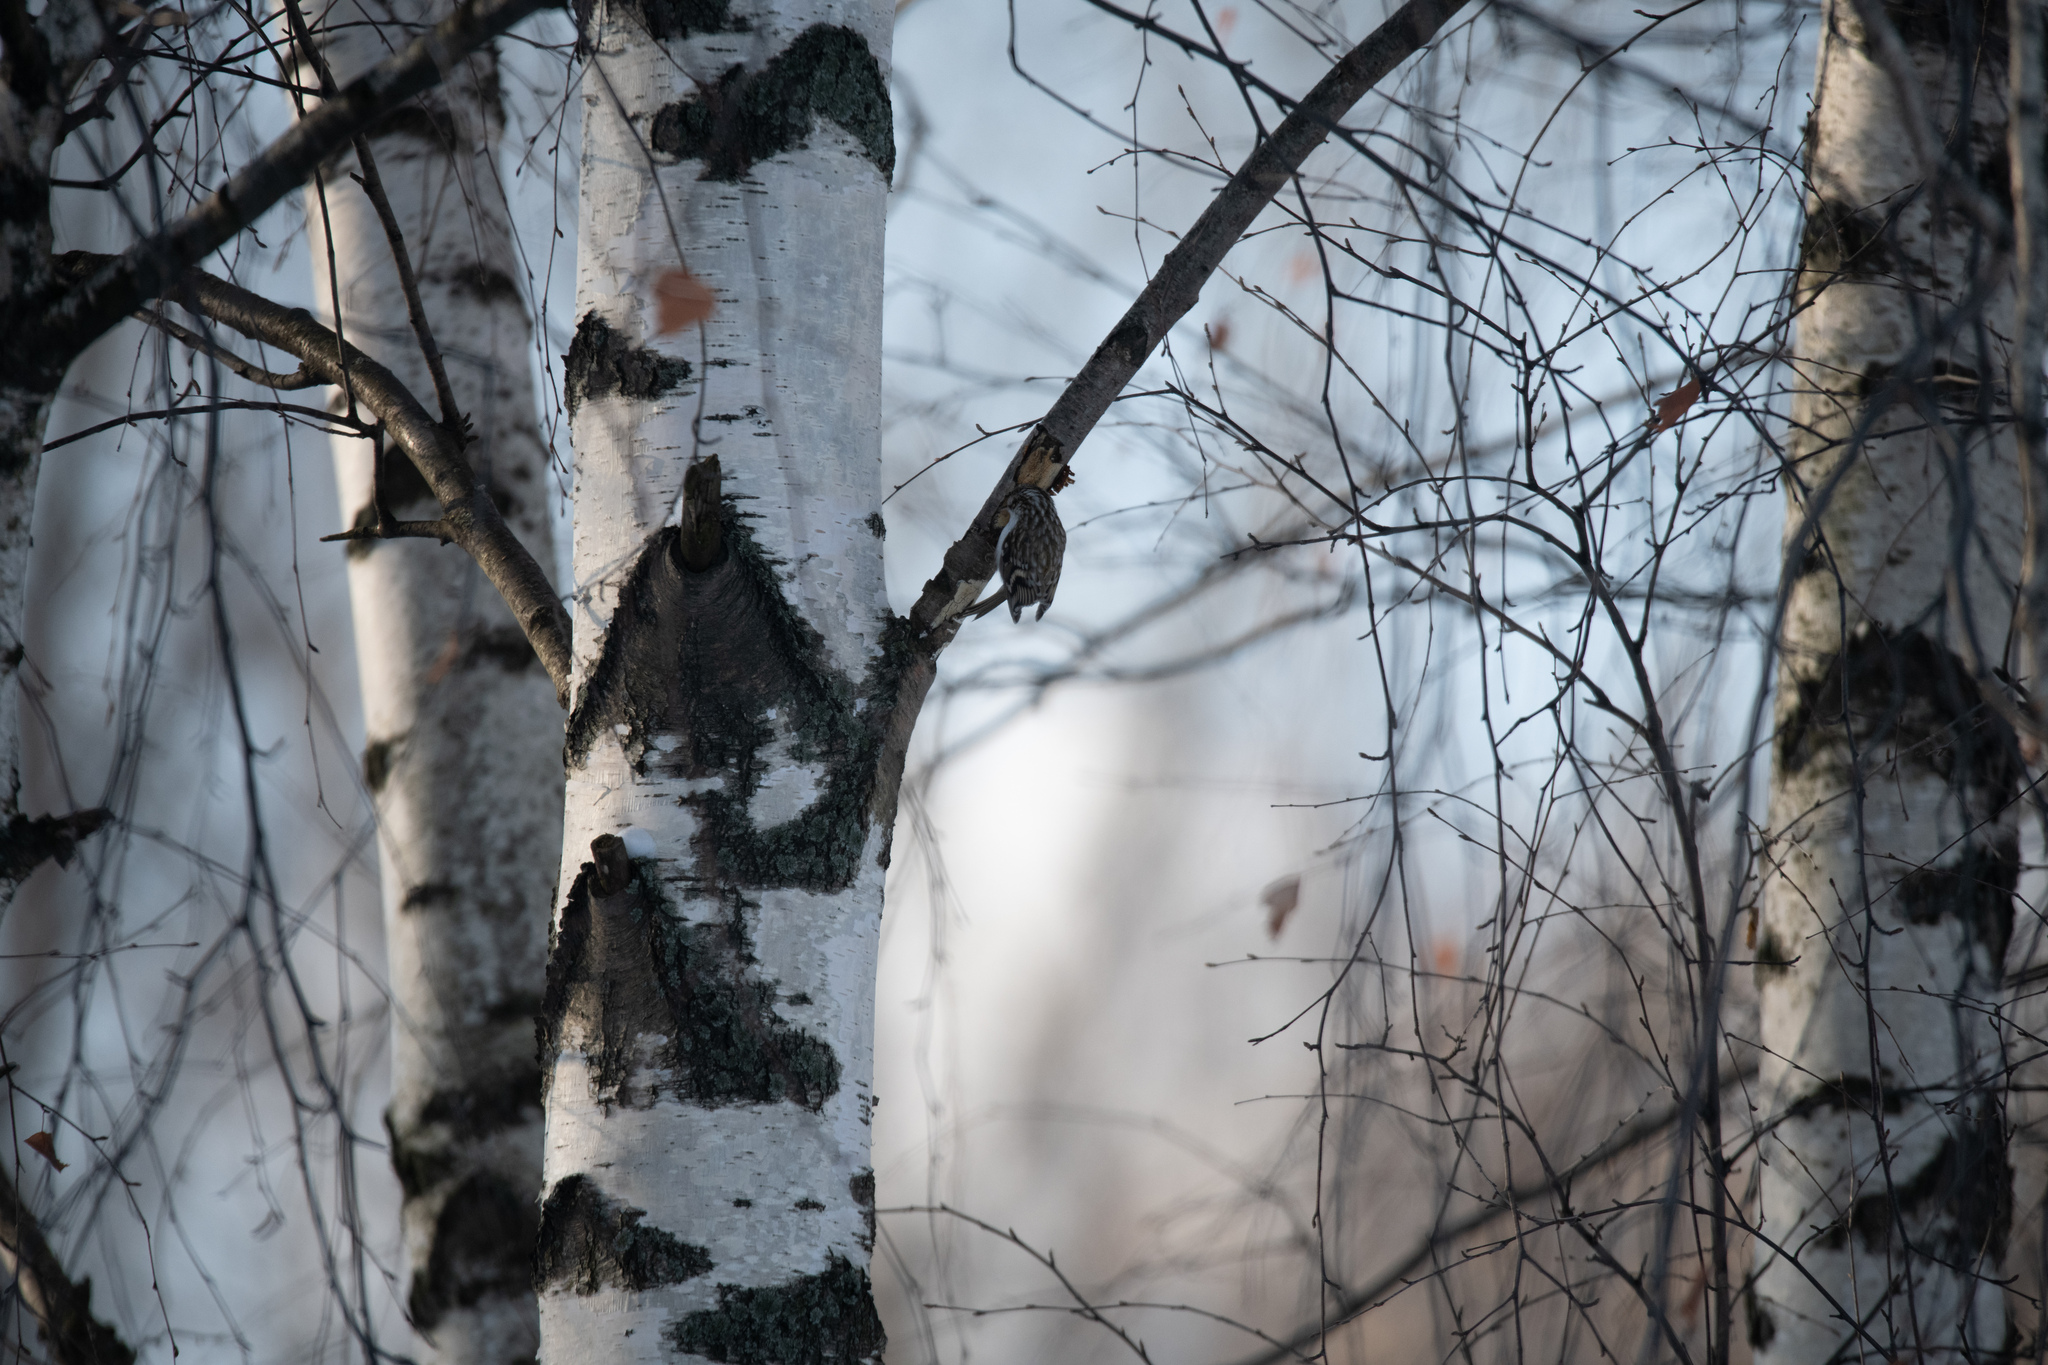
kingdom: Animalia
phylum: Chordata
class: Aves
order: Passeriformes
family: Certhiidae
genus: Certhia
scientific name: Certhia familiaris
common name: Eurasian treecreeper
